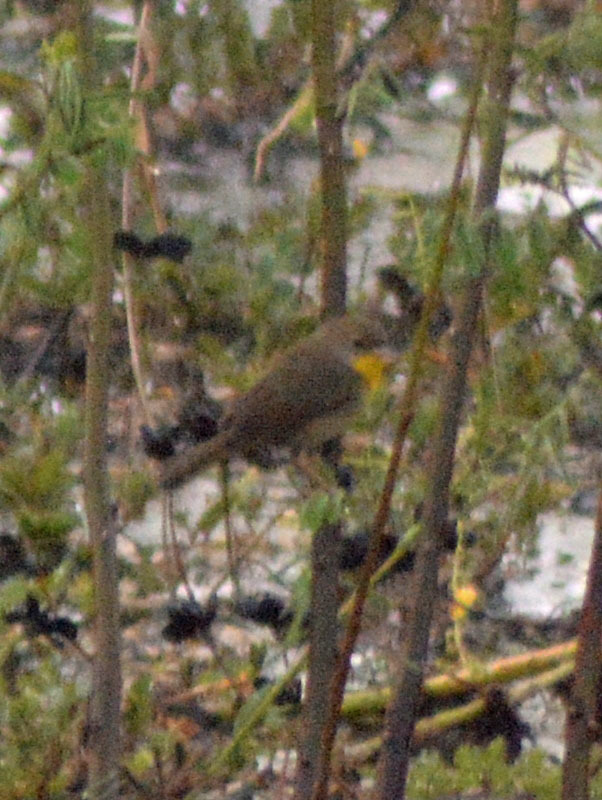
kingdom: Animalia
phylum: Chordata
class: Aves
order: Passeriformes
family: Parulidae
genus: Geothlypis
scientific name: Geothlypis trichas
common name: Common yellowthroat
